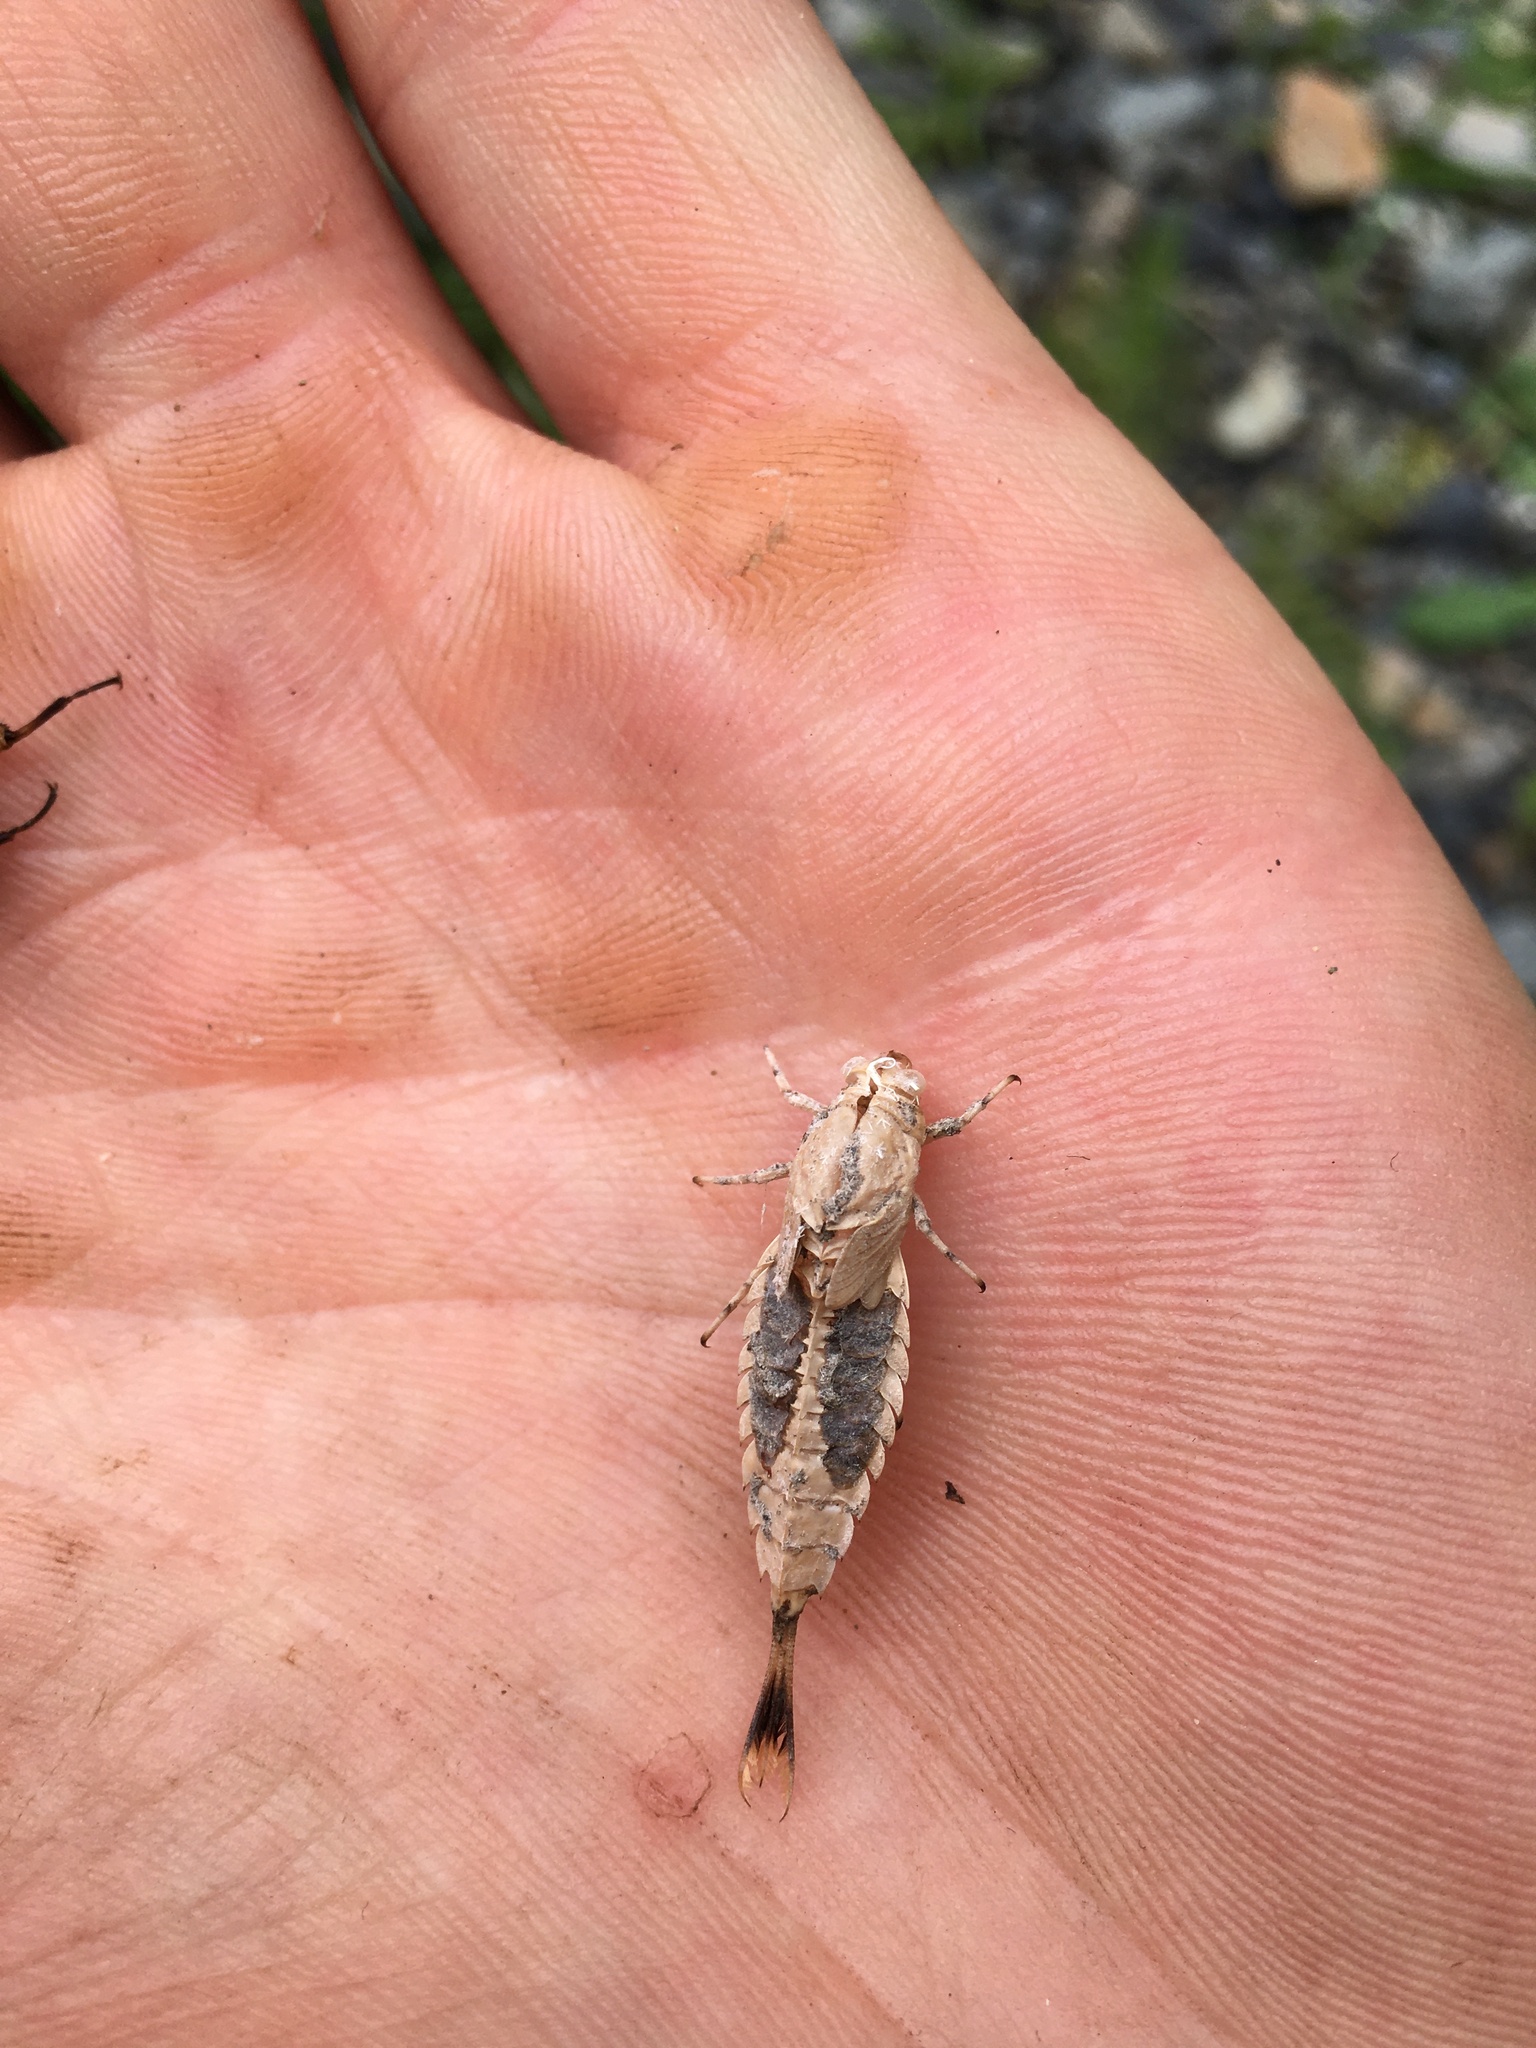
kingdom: Animalia
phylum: Arthropoda
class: Insecta
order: Ephemeroptera
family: Oniscigastridae
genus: Oniscigaster
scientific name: Oniscigaster distans
